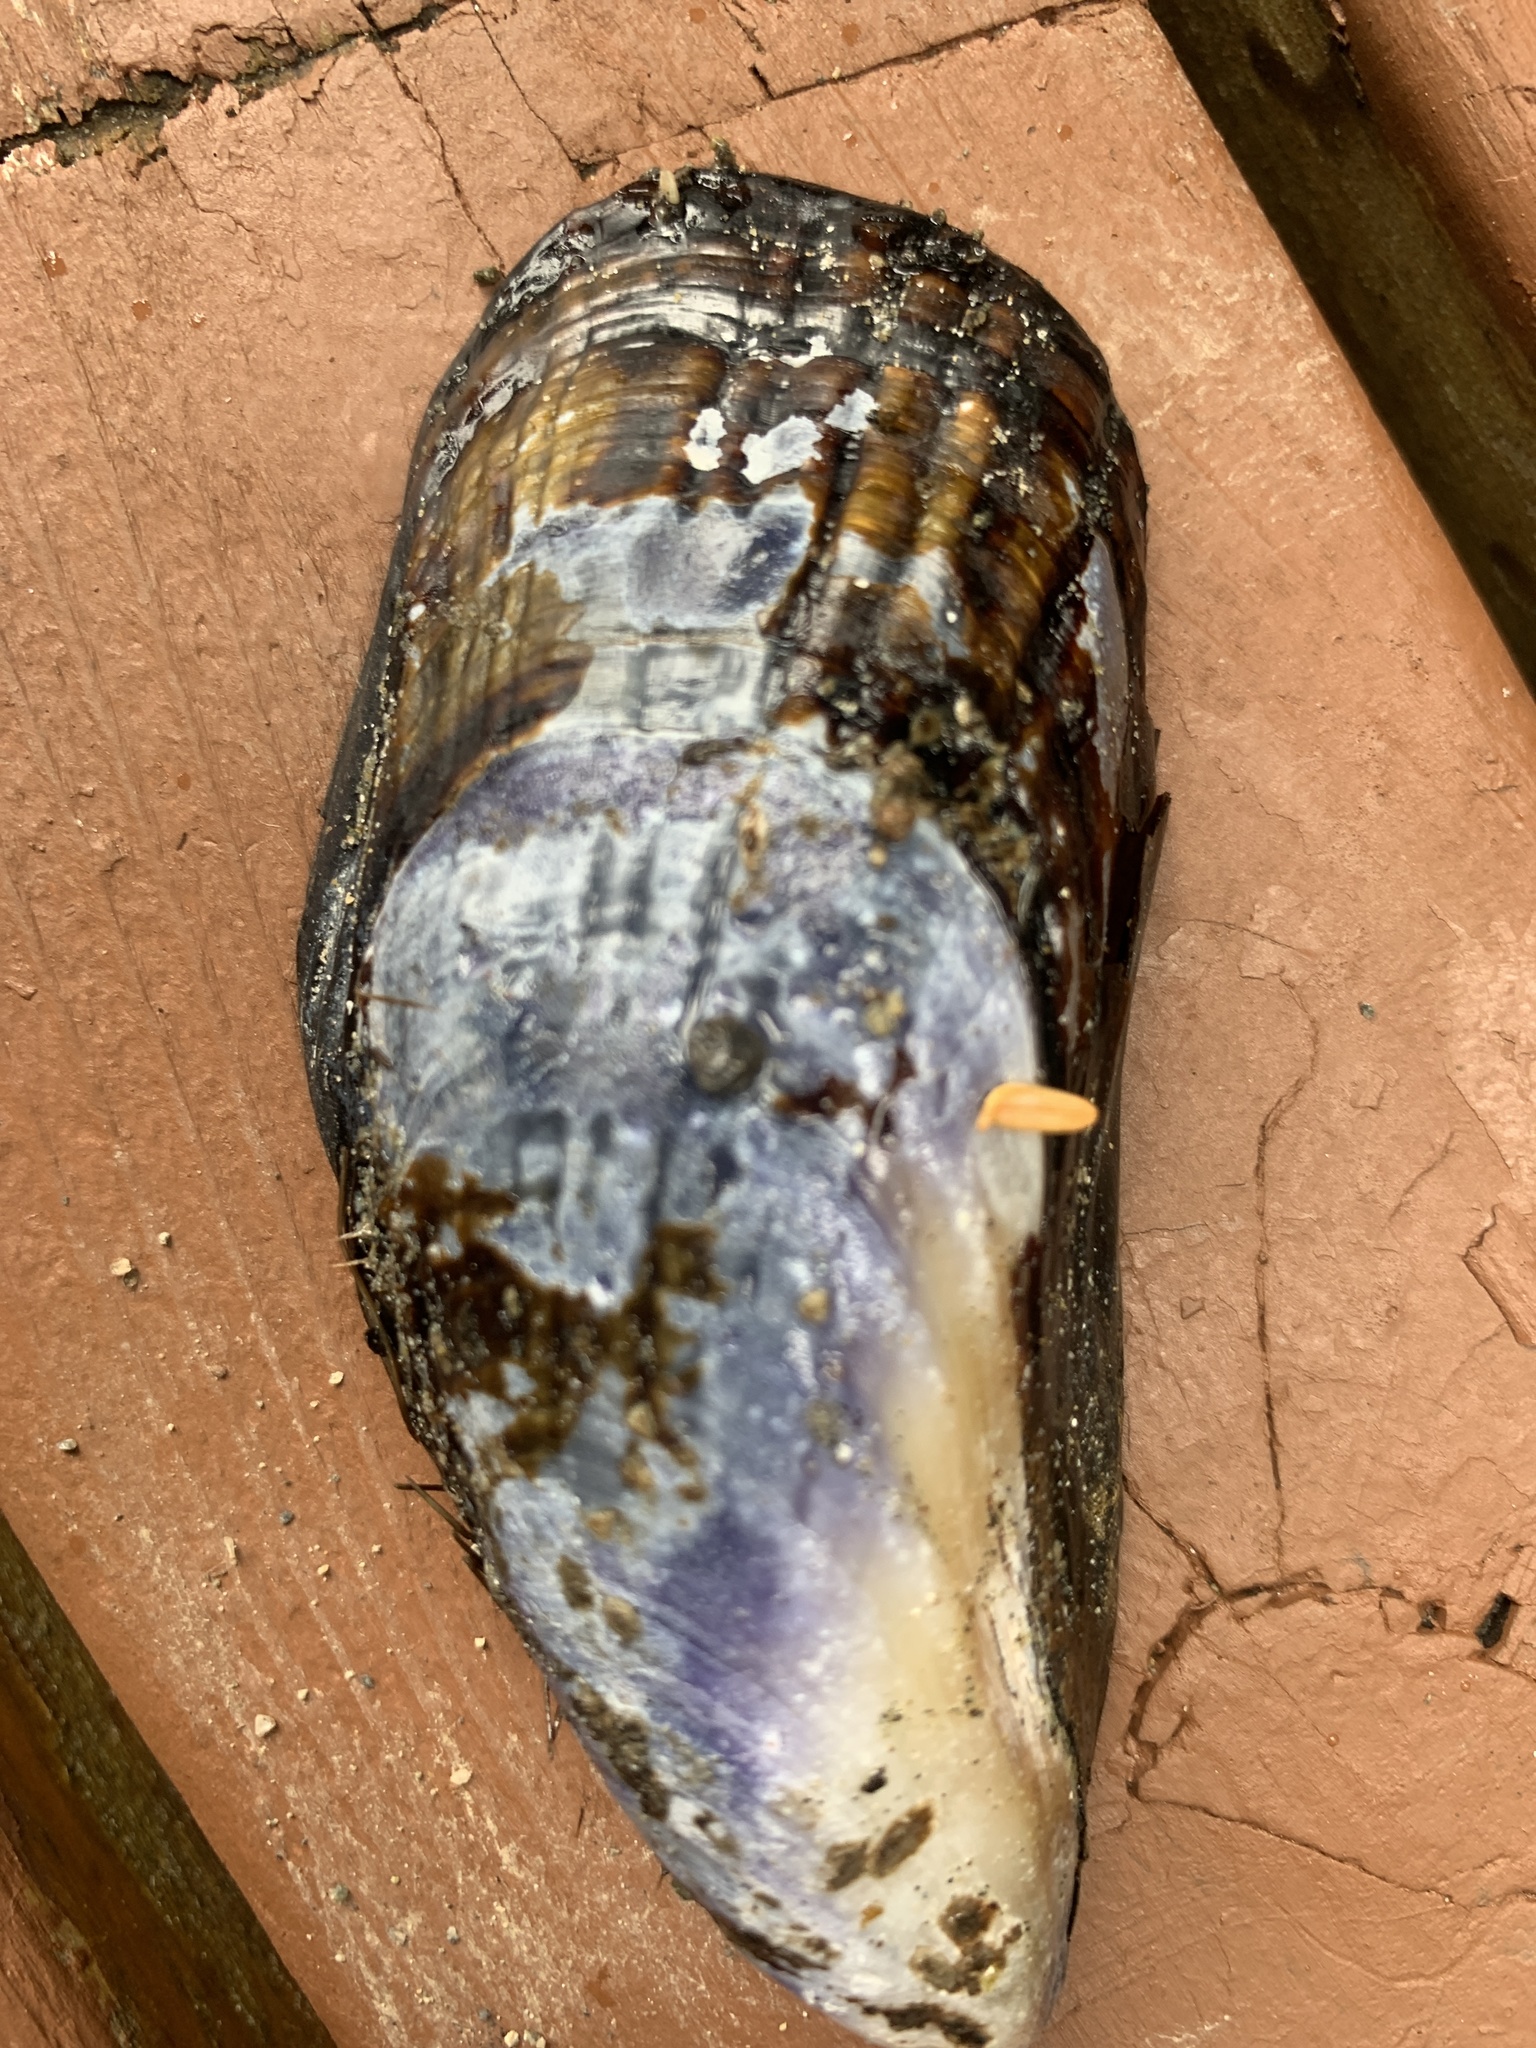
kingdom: Animalia
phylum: Mollusca
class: Bivalvia
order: Mytilida
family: Mytilidae
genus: Mytilus
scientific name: Mytilus californianus
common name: California mussel
